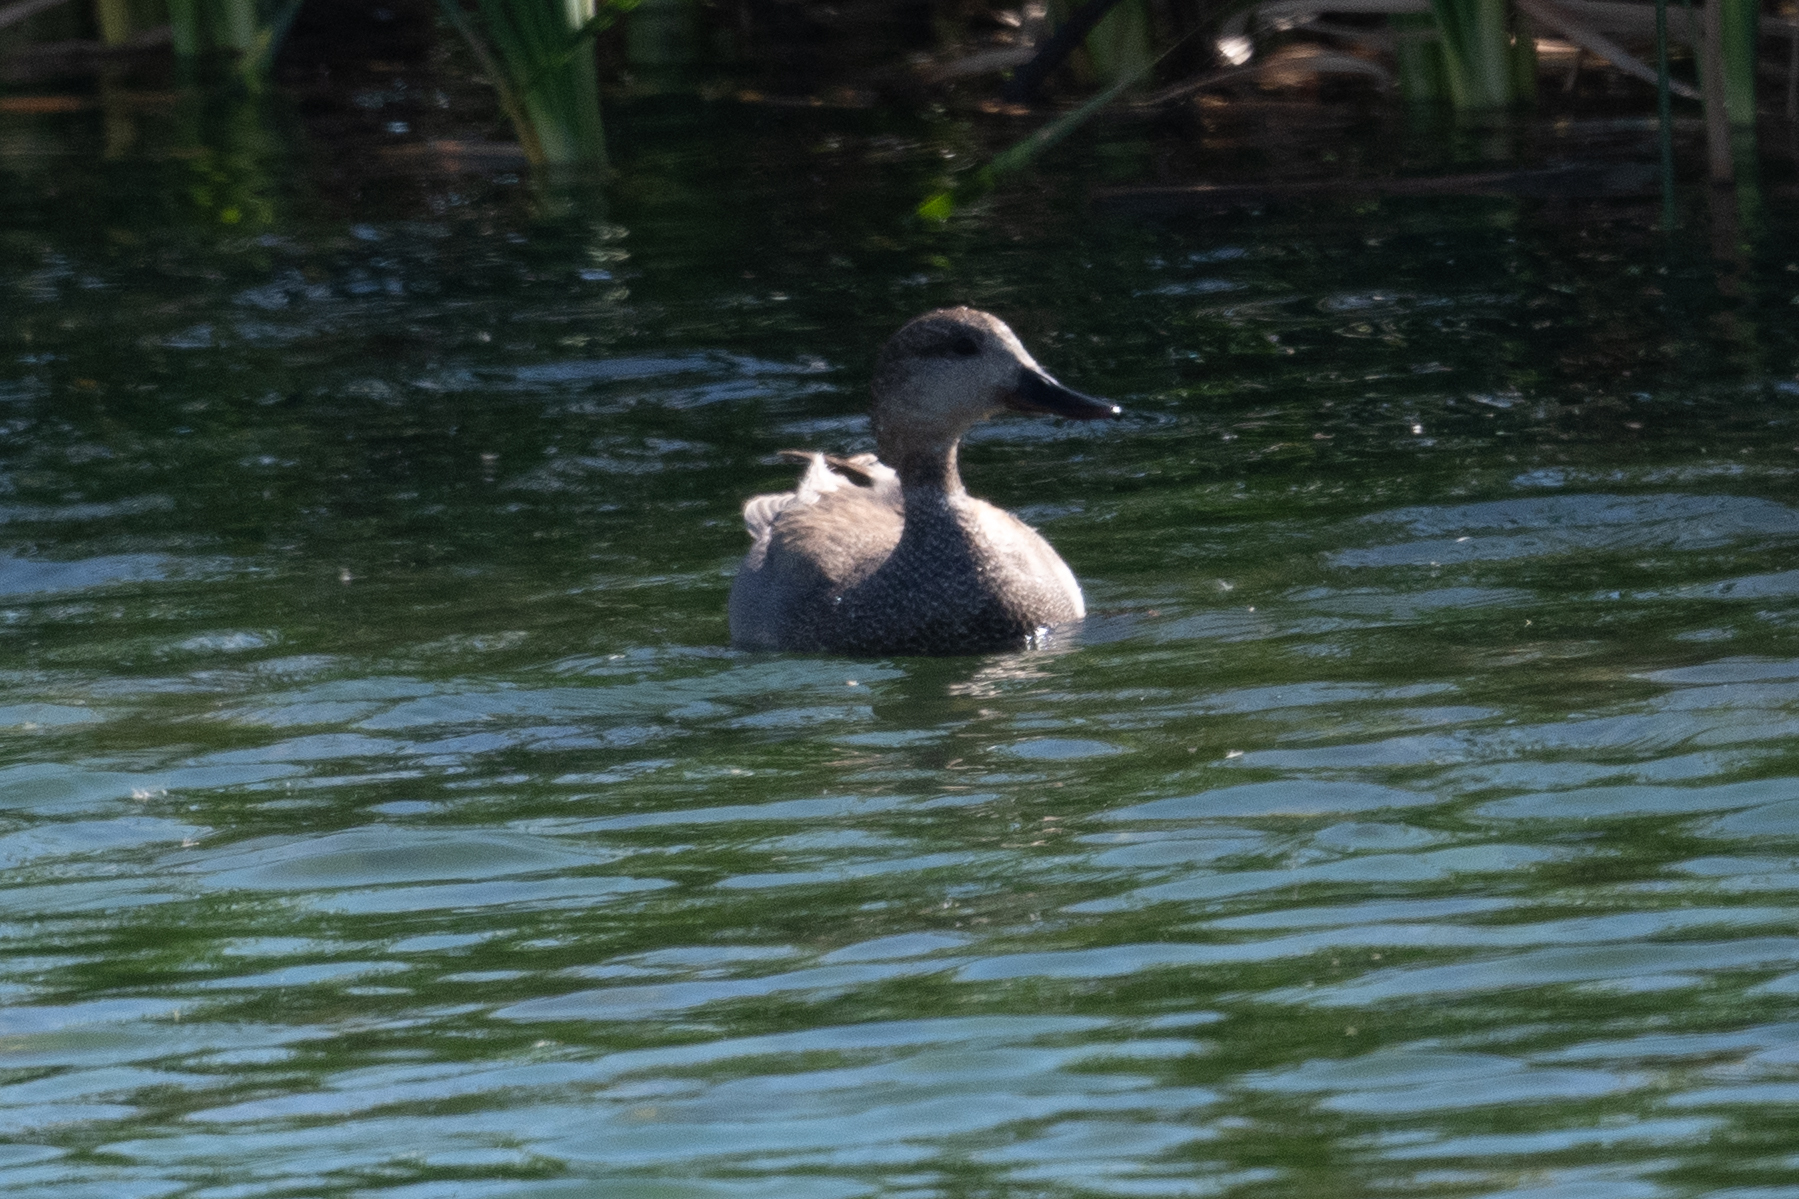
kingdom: Animalia
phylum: Chordata
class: Aves
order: Anseriformes
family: Anatidae
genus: Mareca
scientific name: Mareca strepera
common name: Gadwall
